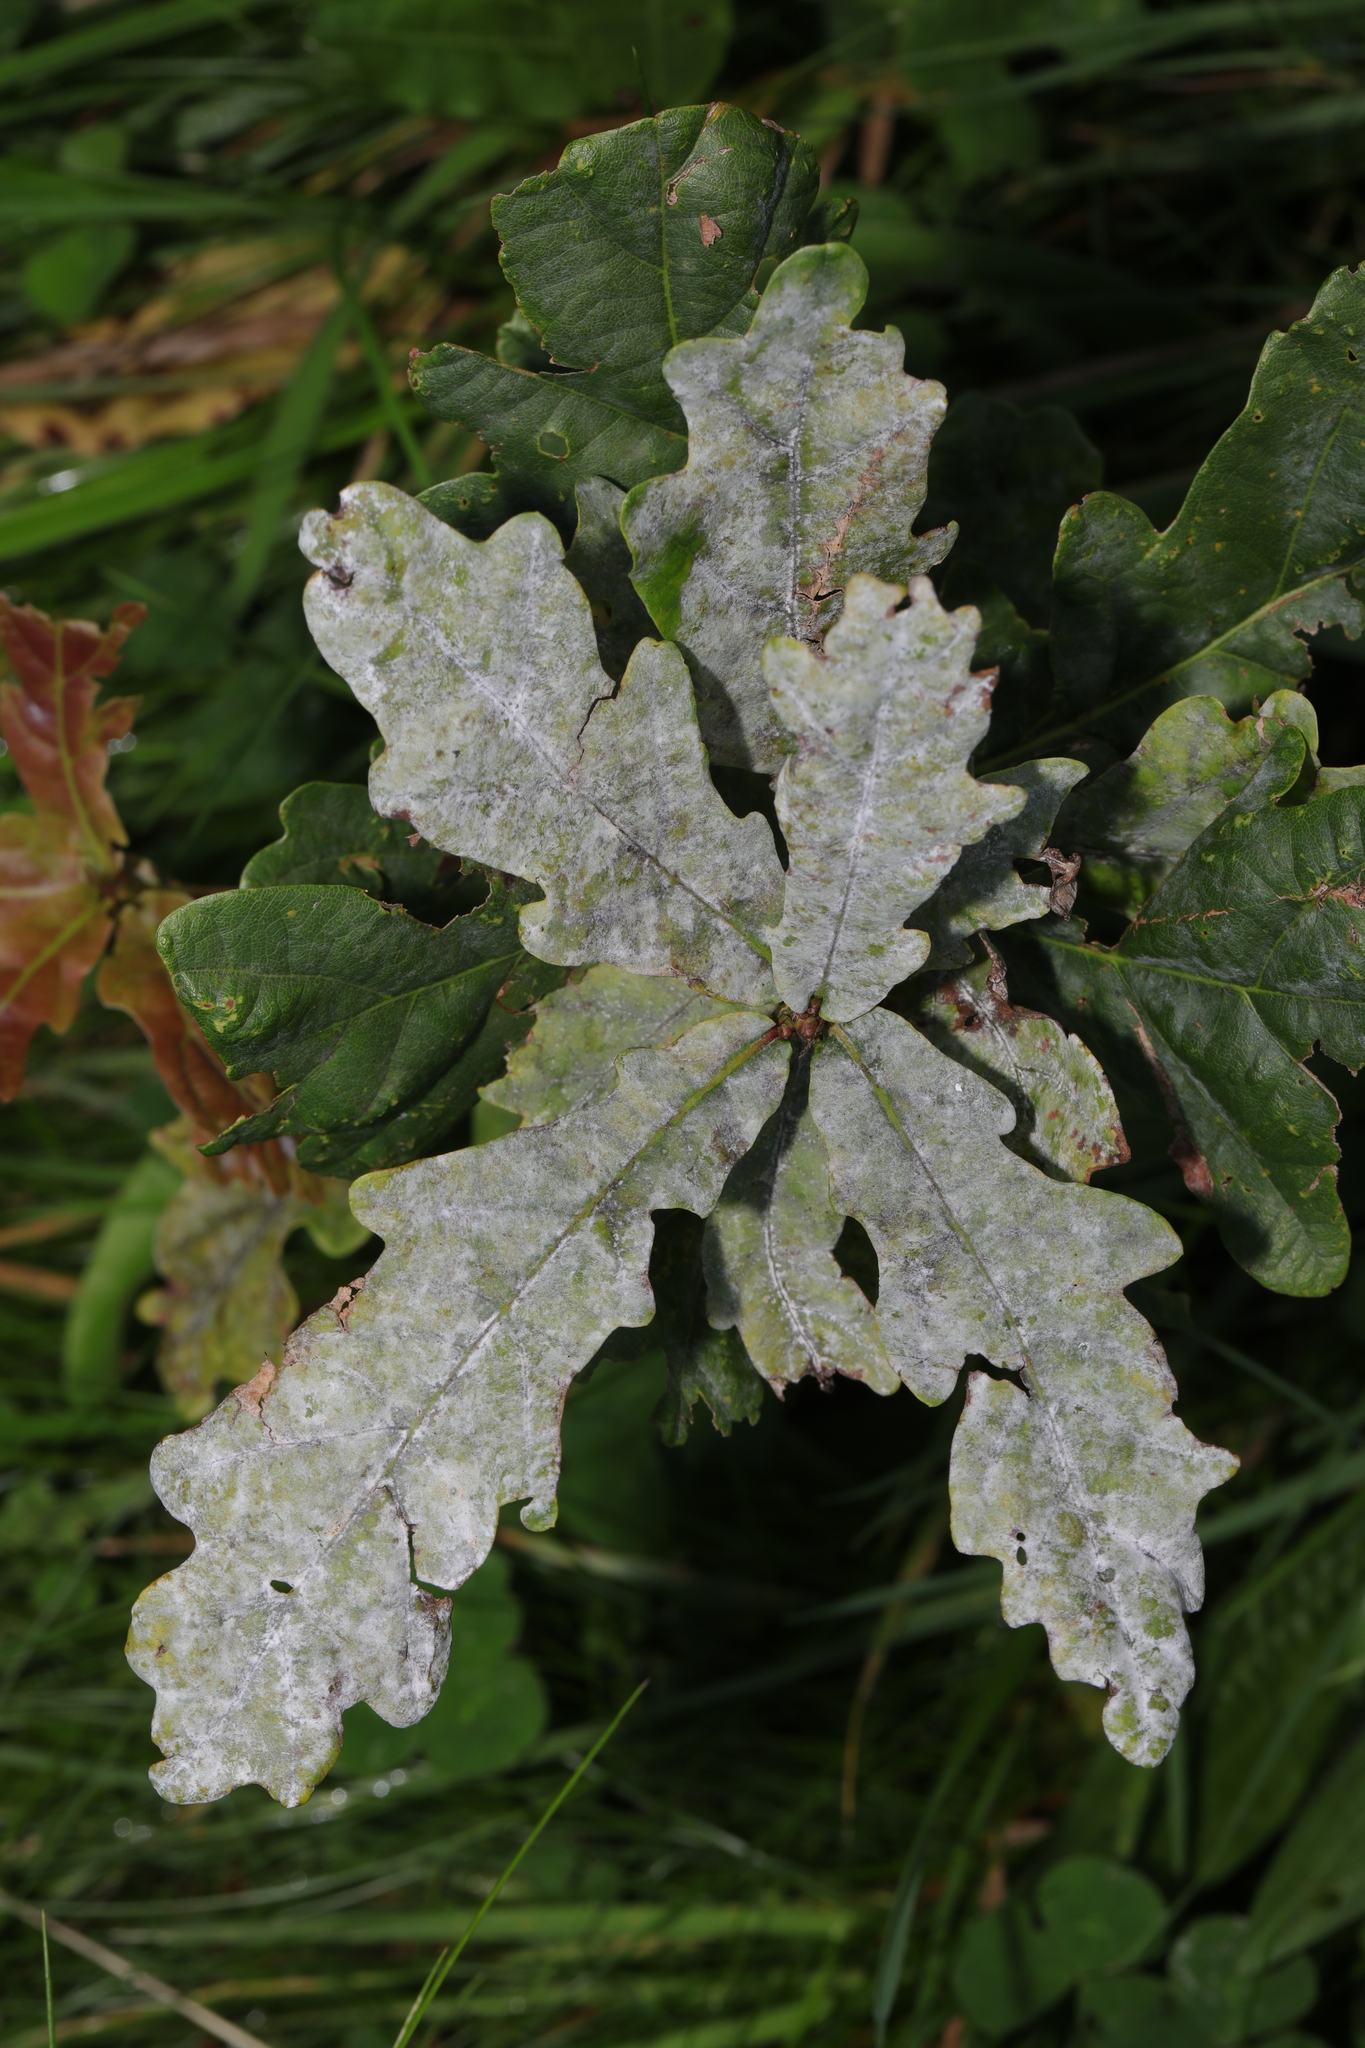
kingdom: Fungi
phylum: Ascomycota
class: Leotiomycetes
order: Helotiales
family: Erysiphaceae
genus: Erysiphe
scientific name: Erysiphe alphitoides
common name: Oak mildew
